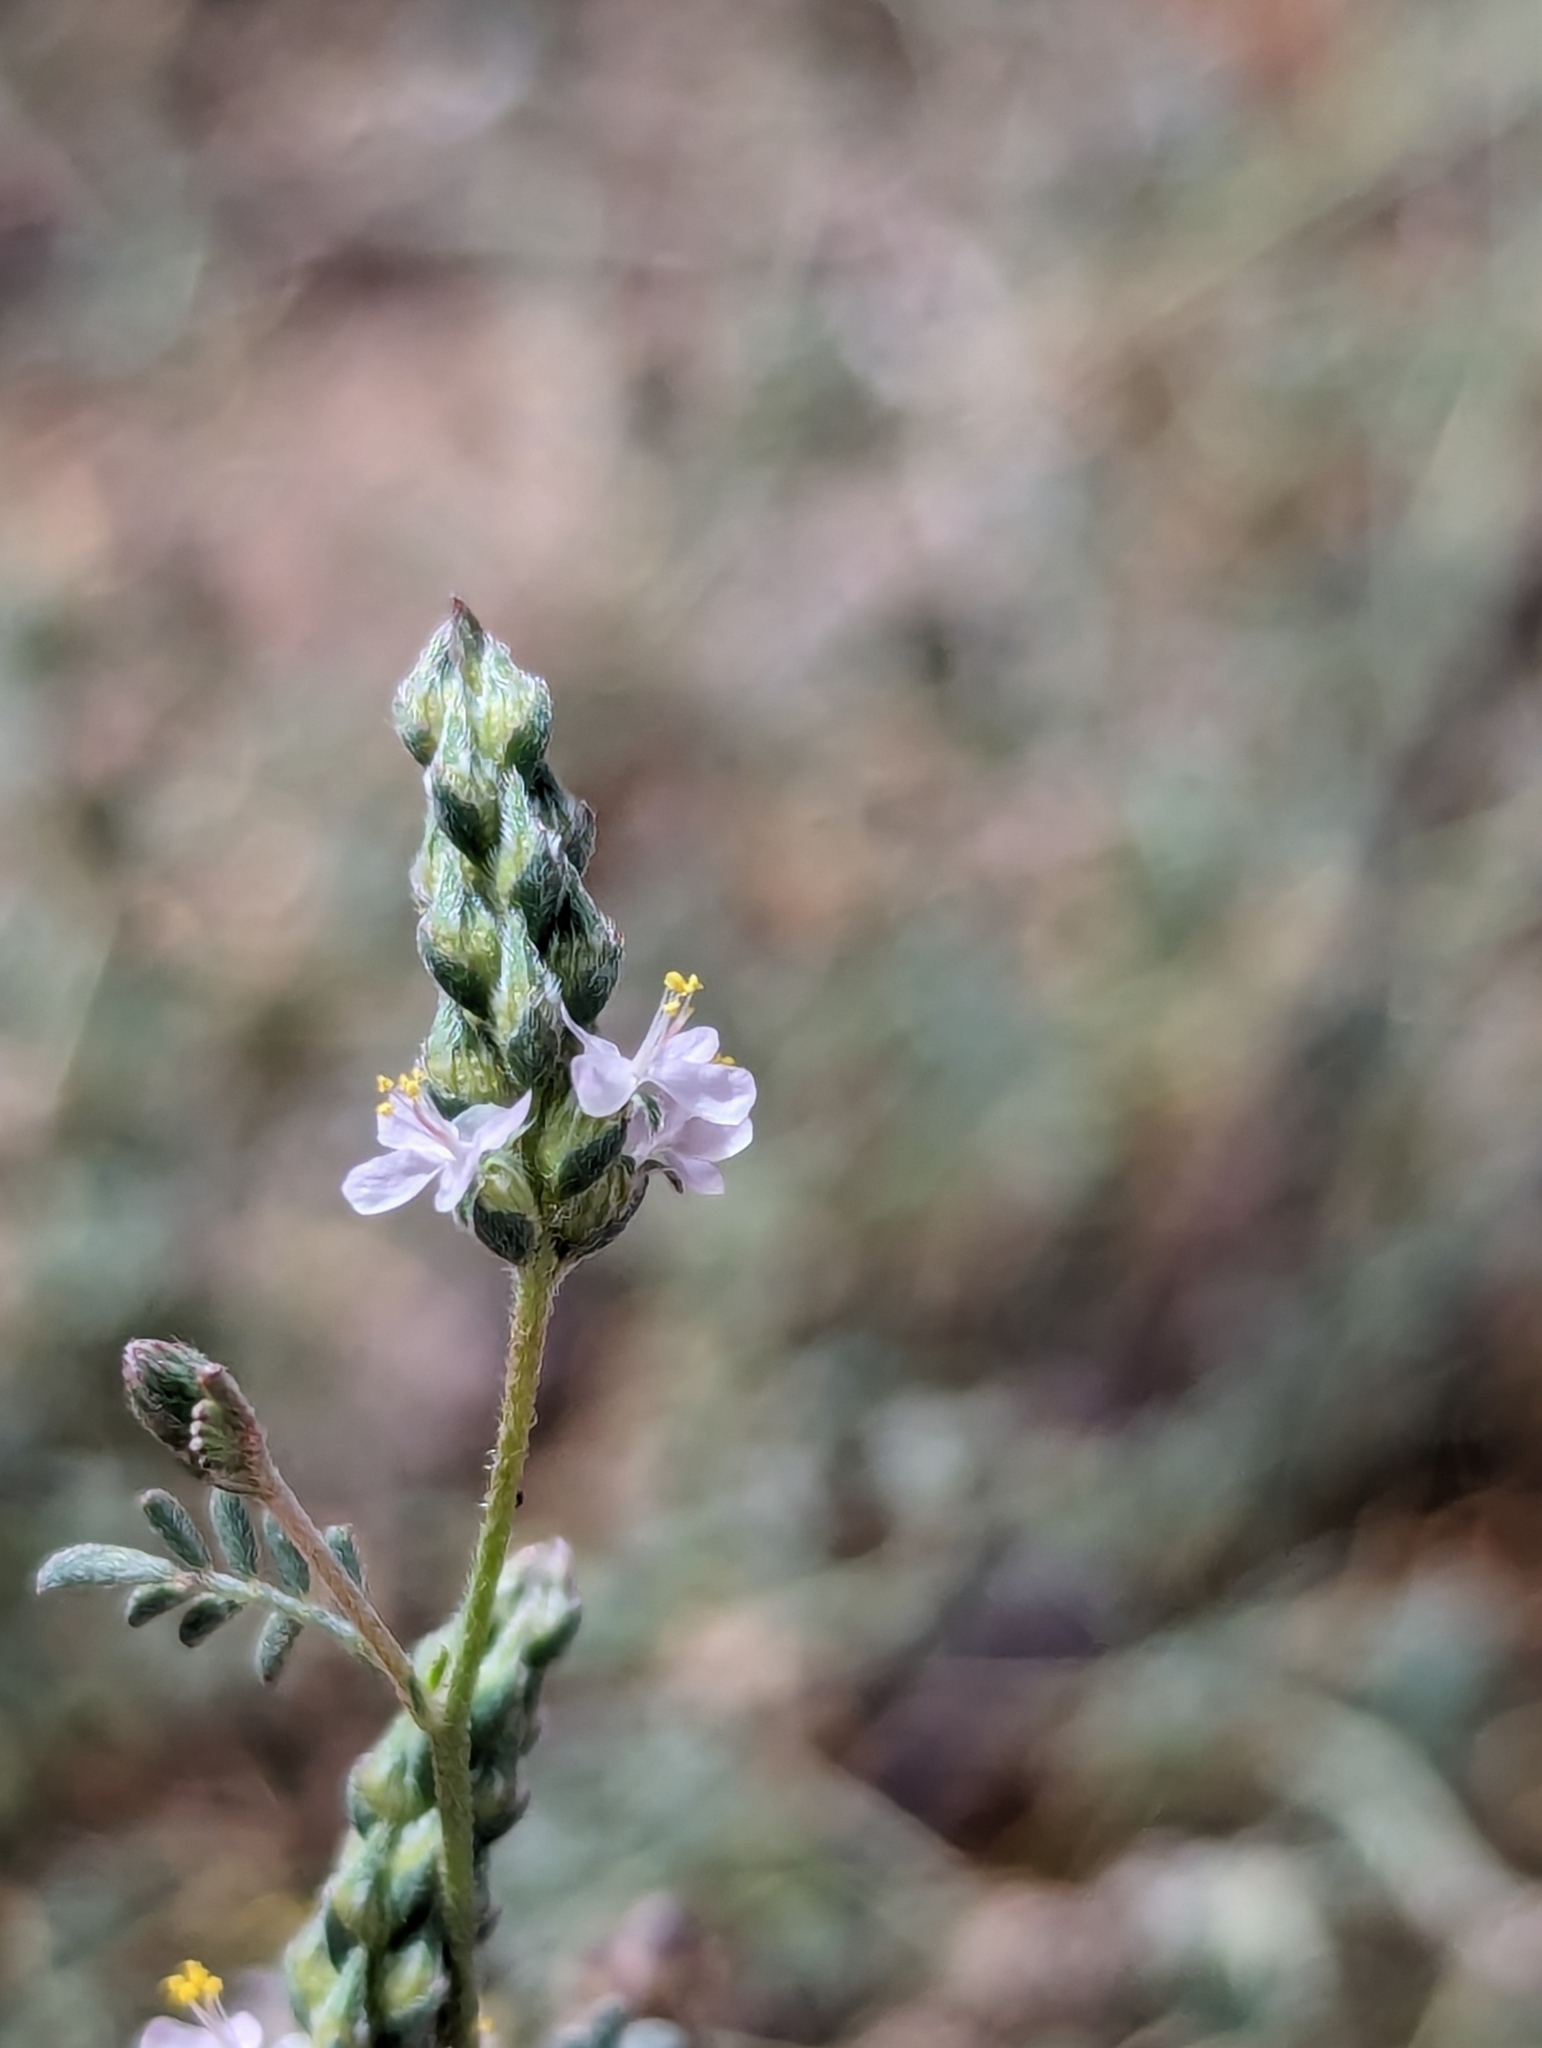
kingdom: Plantae
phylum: Tracheophyta
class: Magnoliopsida
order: Fabales
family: Fabaceae
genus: Marina
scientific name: Marina evanescens
